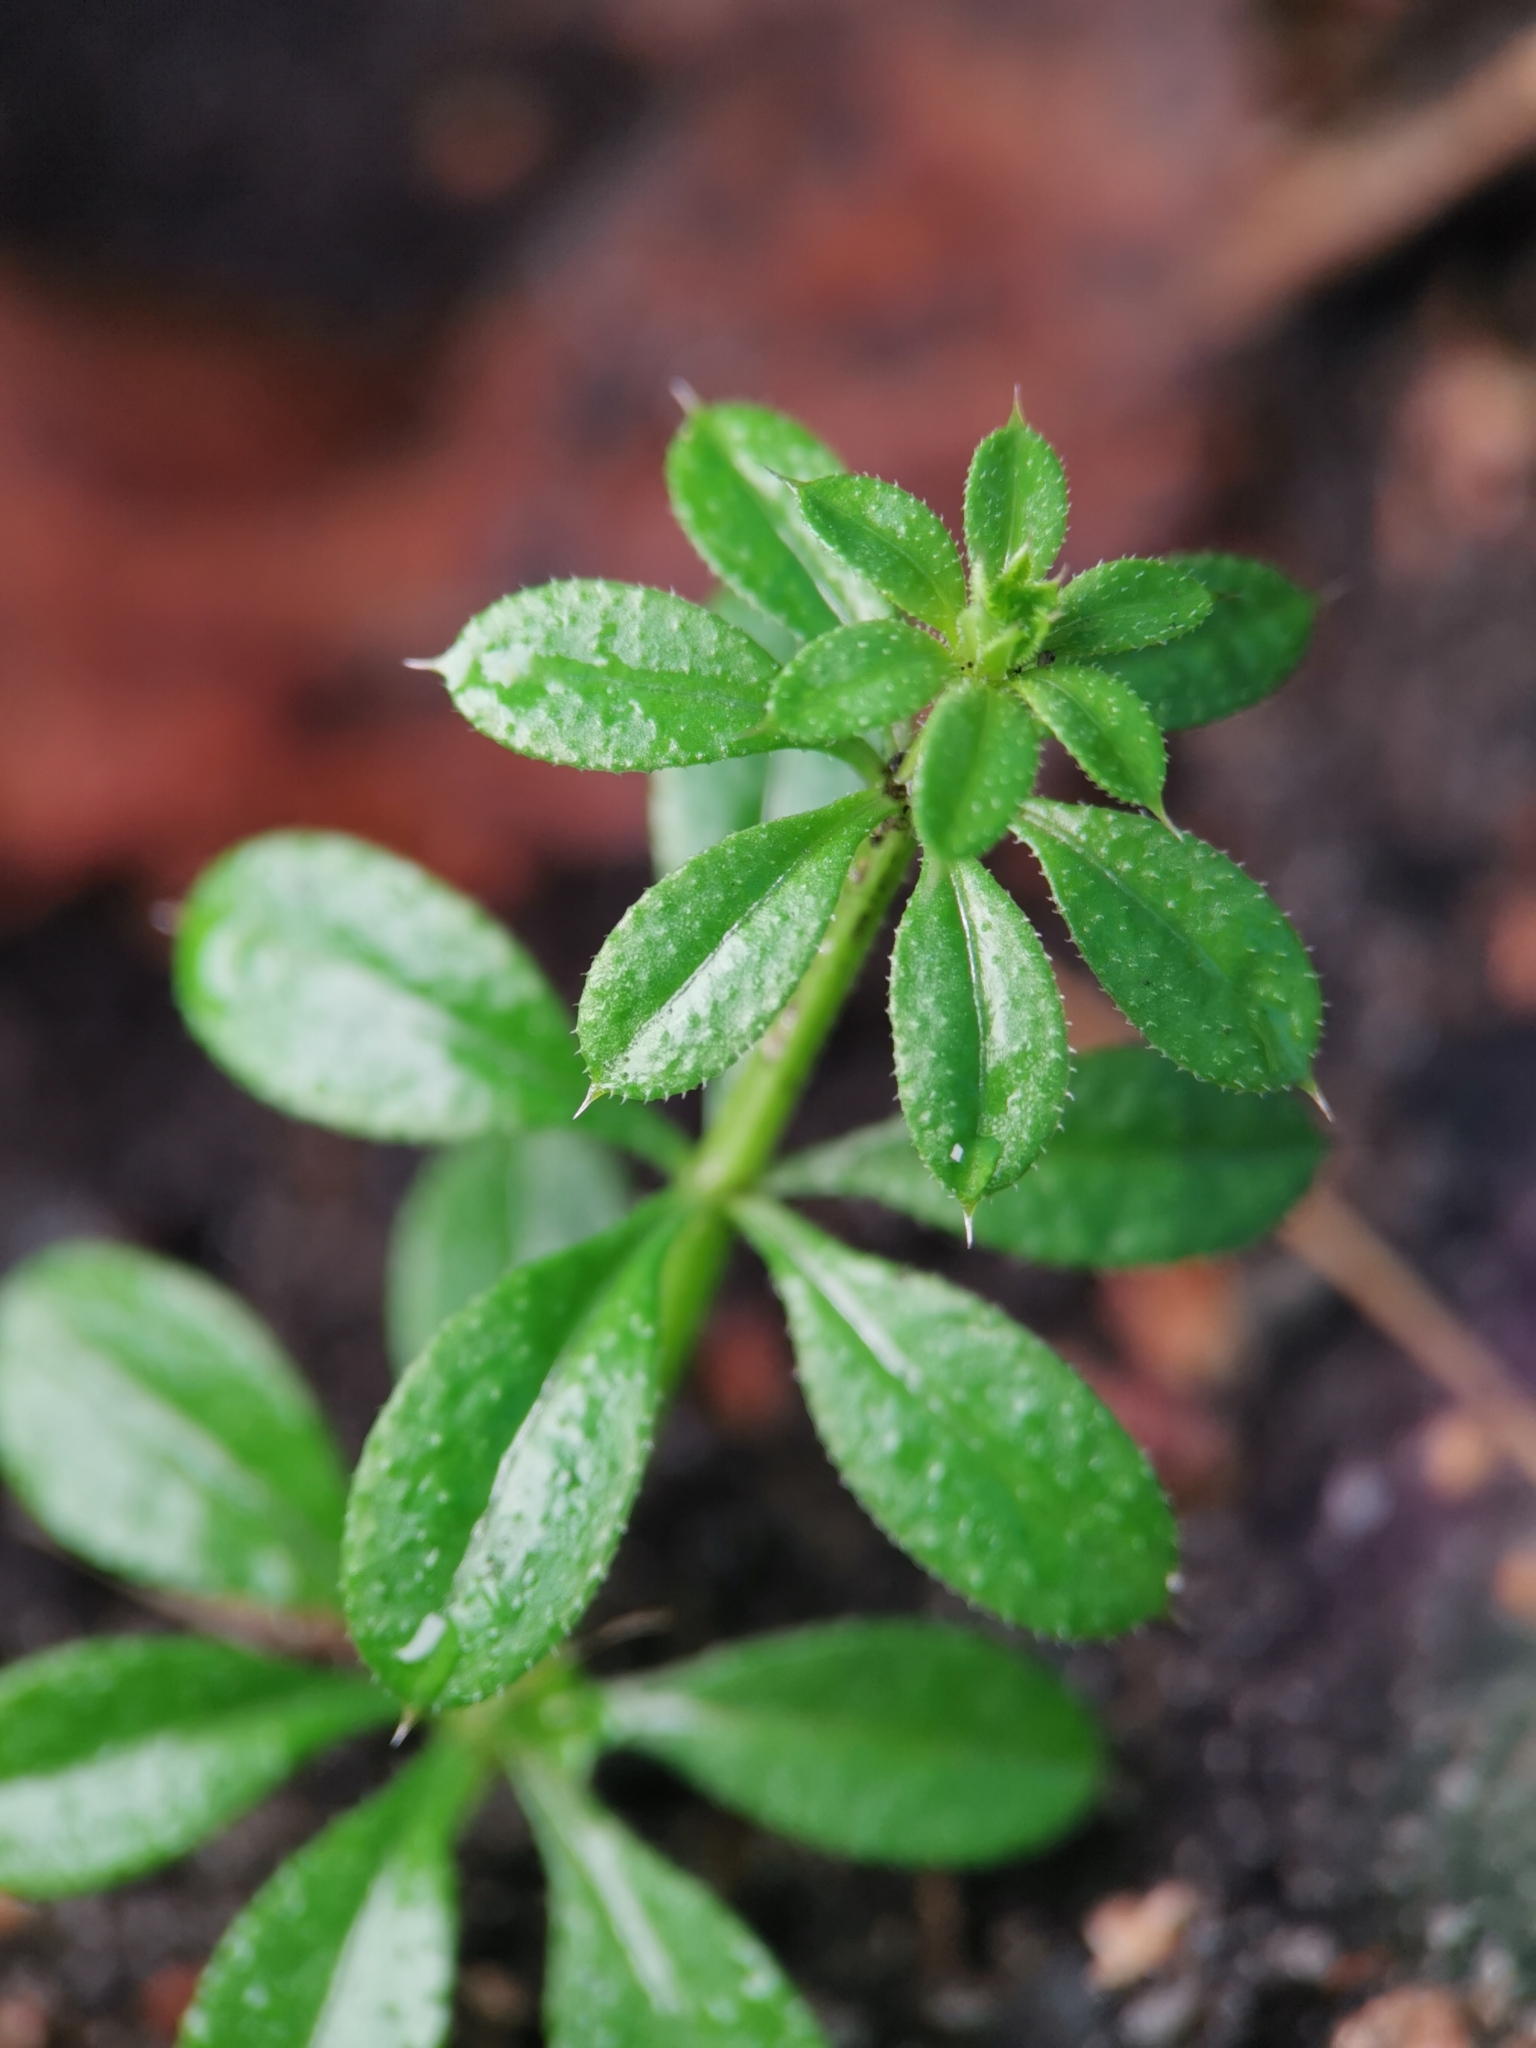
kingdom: Plantae
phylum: Tracheophyta
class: Magnoliopsida
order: Gentianales
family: Rubiaceae
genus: Galium
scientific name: Galium aparine
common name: Cleavers
